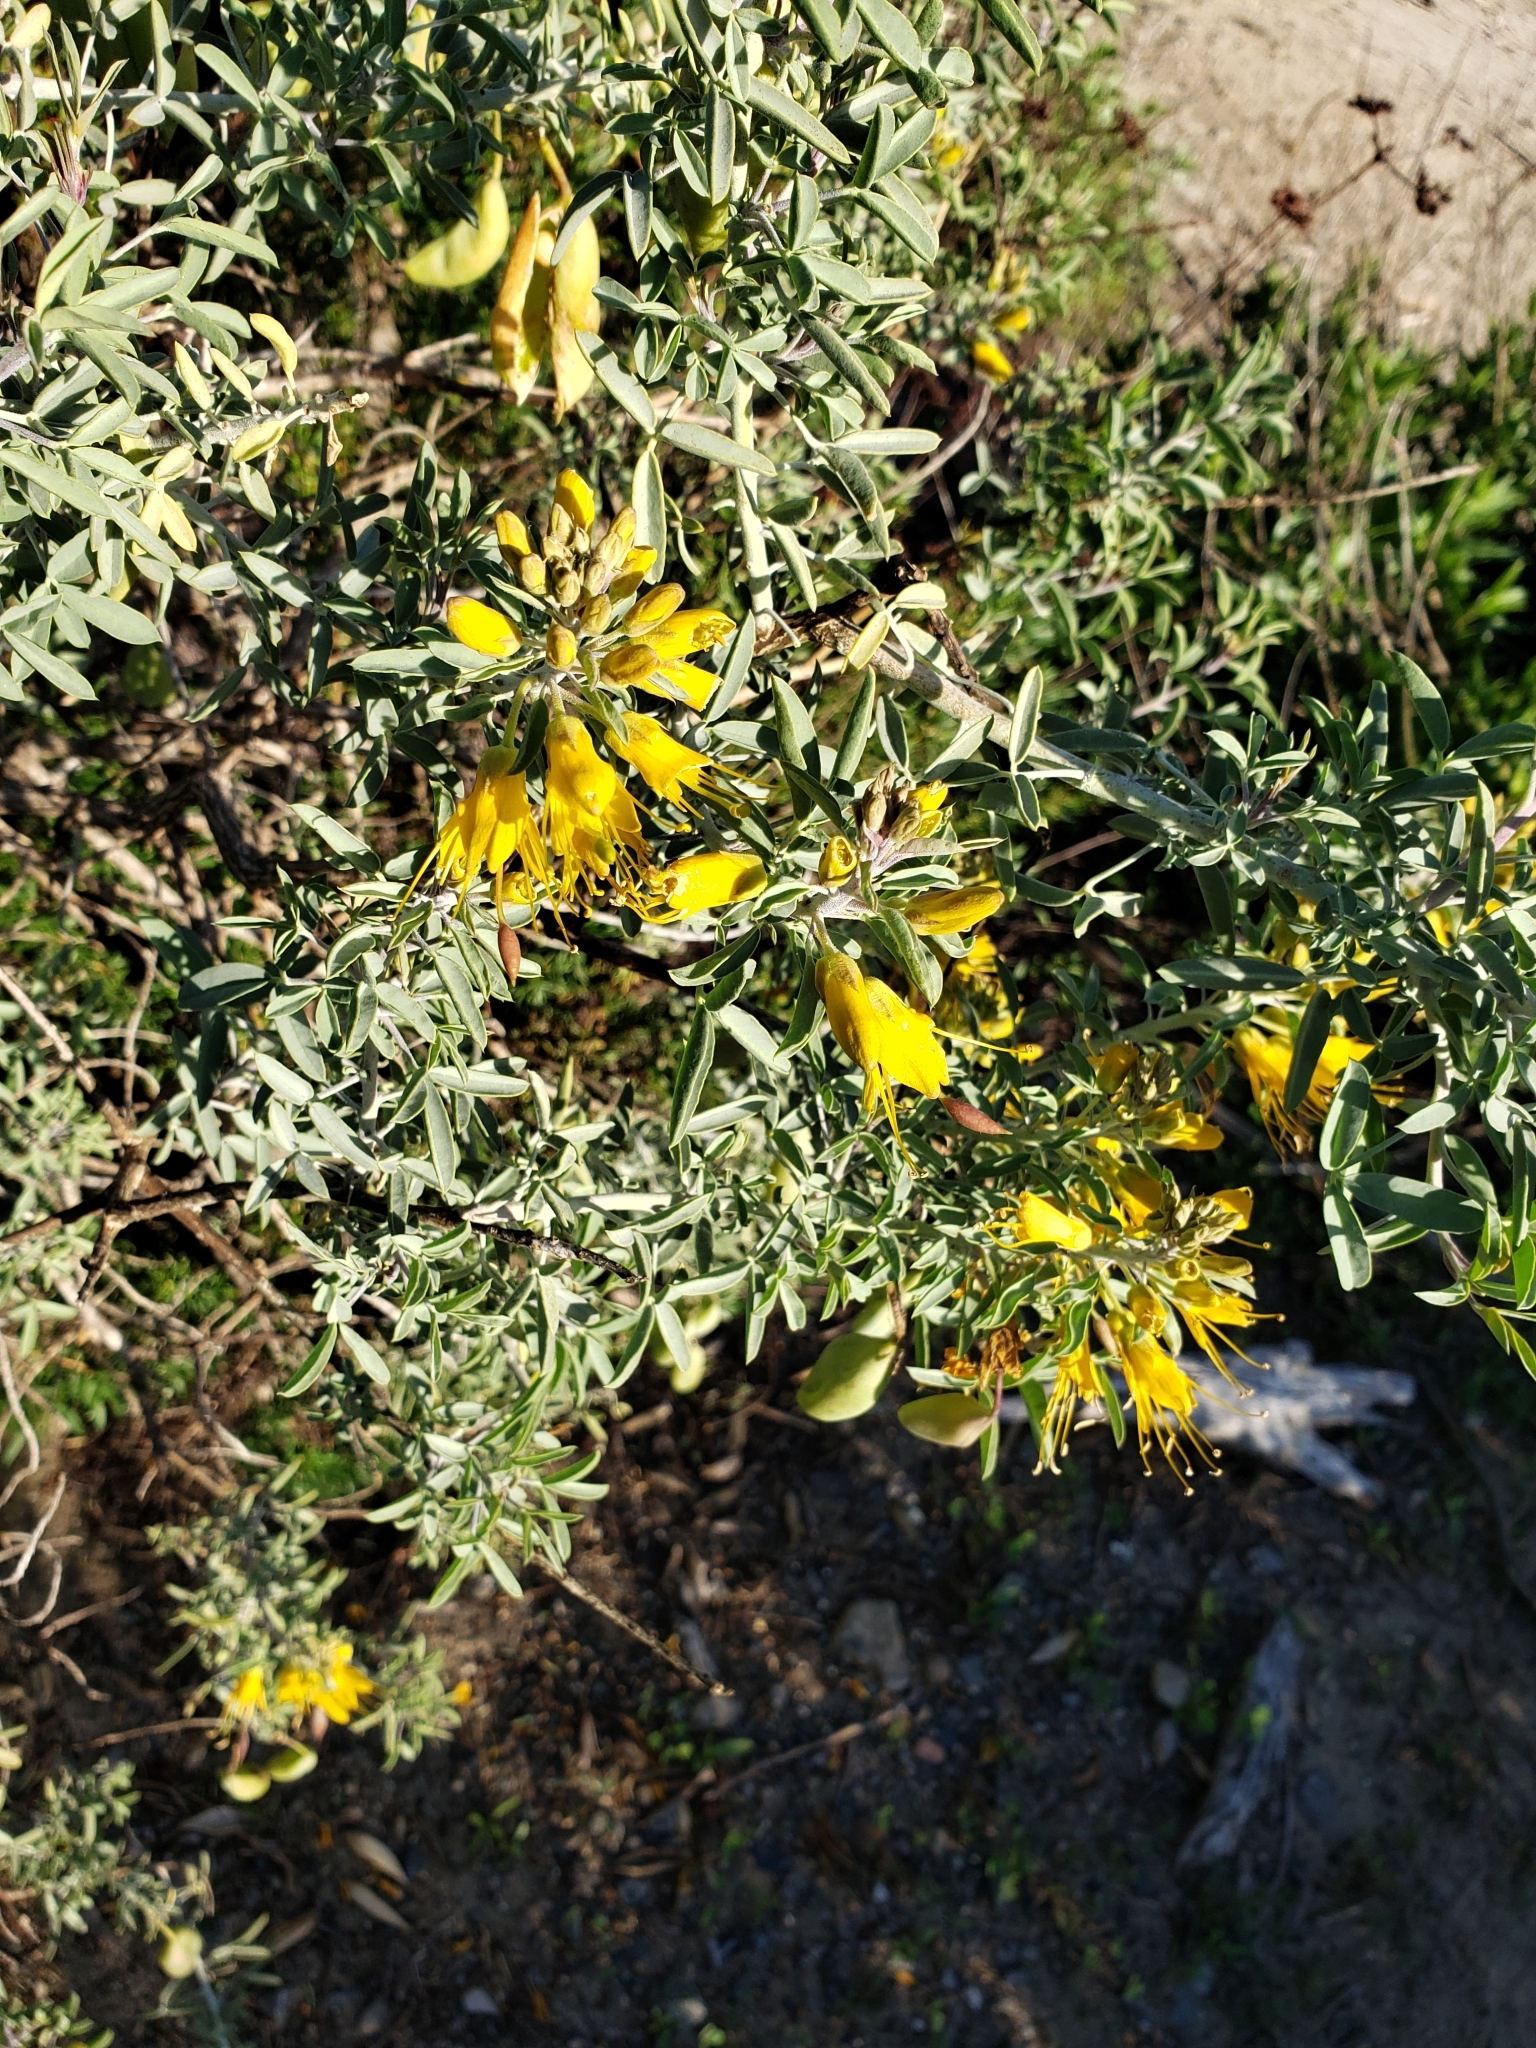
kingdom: Plantae
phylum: Tracheophyta
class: Magnoliopsida
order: Brassicales
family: Cleomaceae
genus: Cleomella
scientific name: Cleomella arborea
